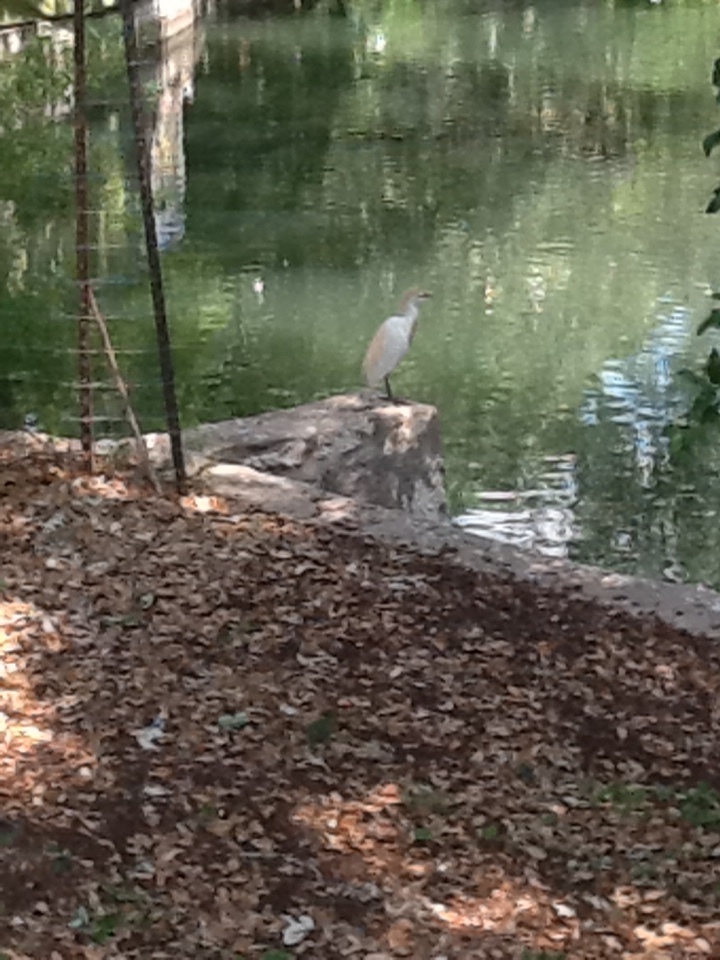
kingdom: Animalia
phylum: Chordata
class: Aves
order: Pelecaniformes
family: Ardeidae
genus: Bubulcus
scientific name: Bubulcus ibis
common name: Cattle egret
